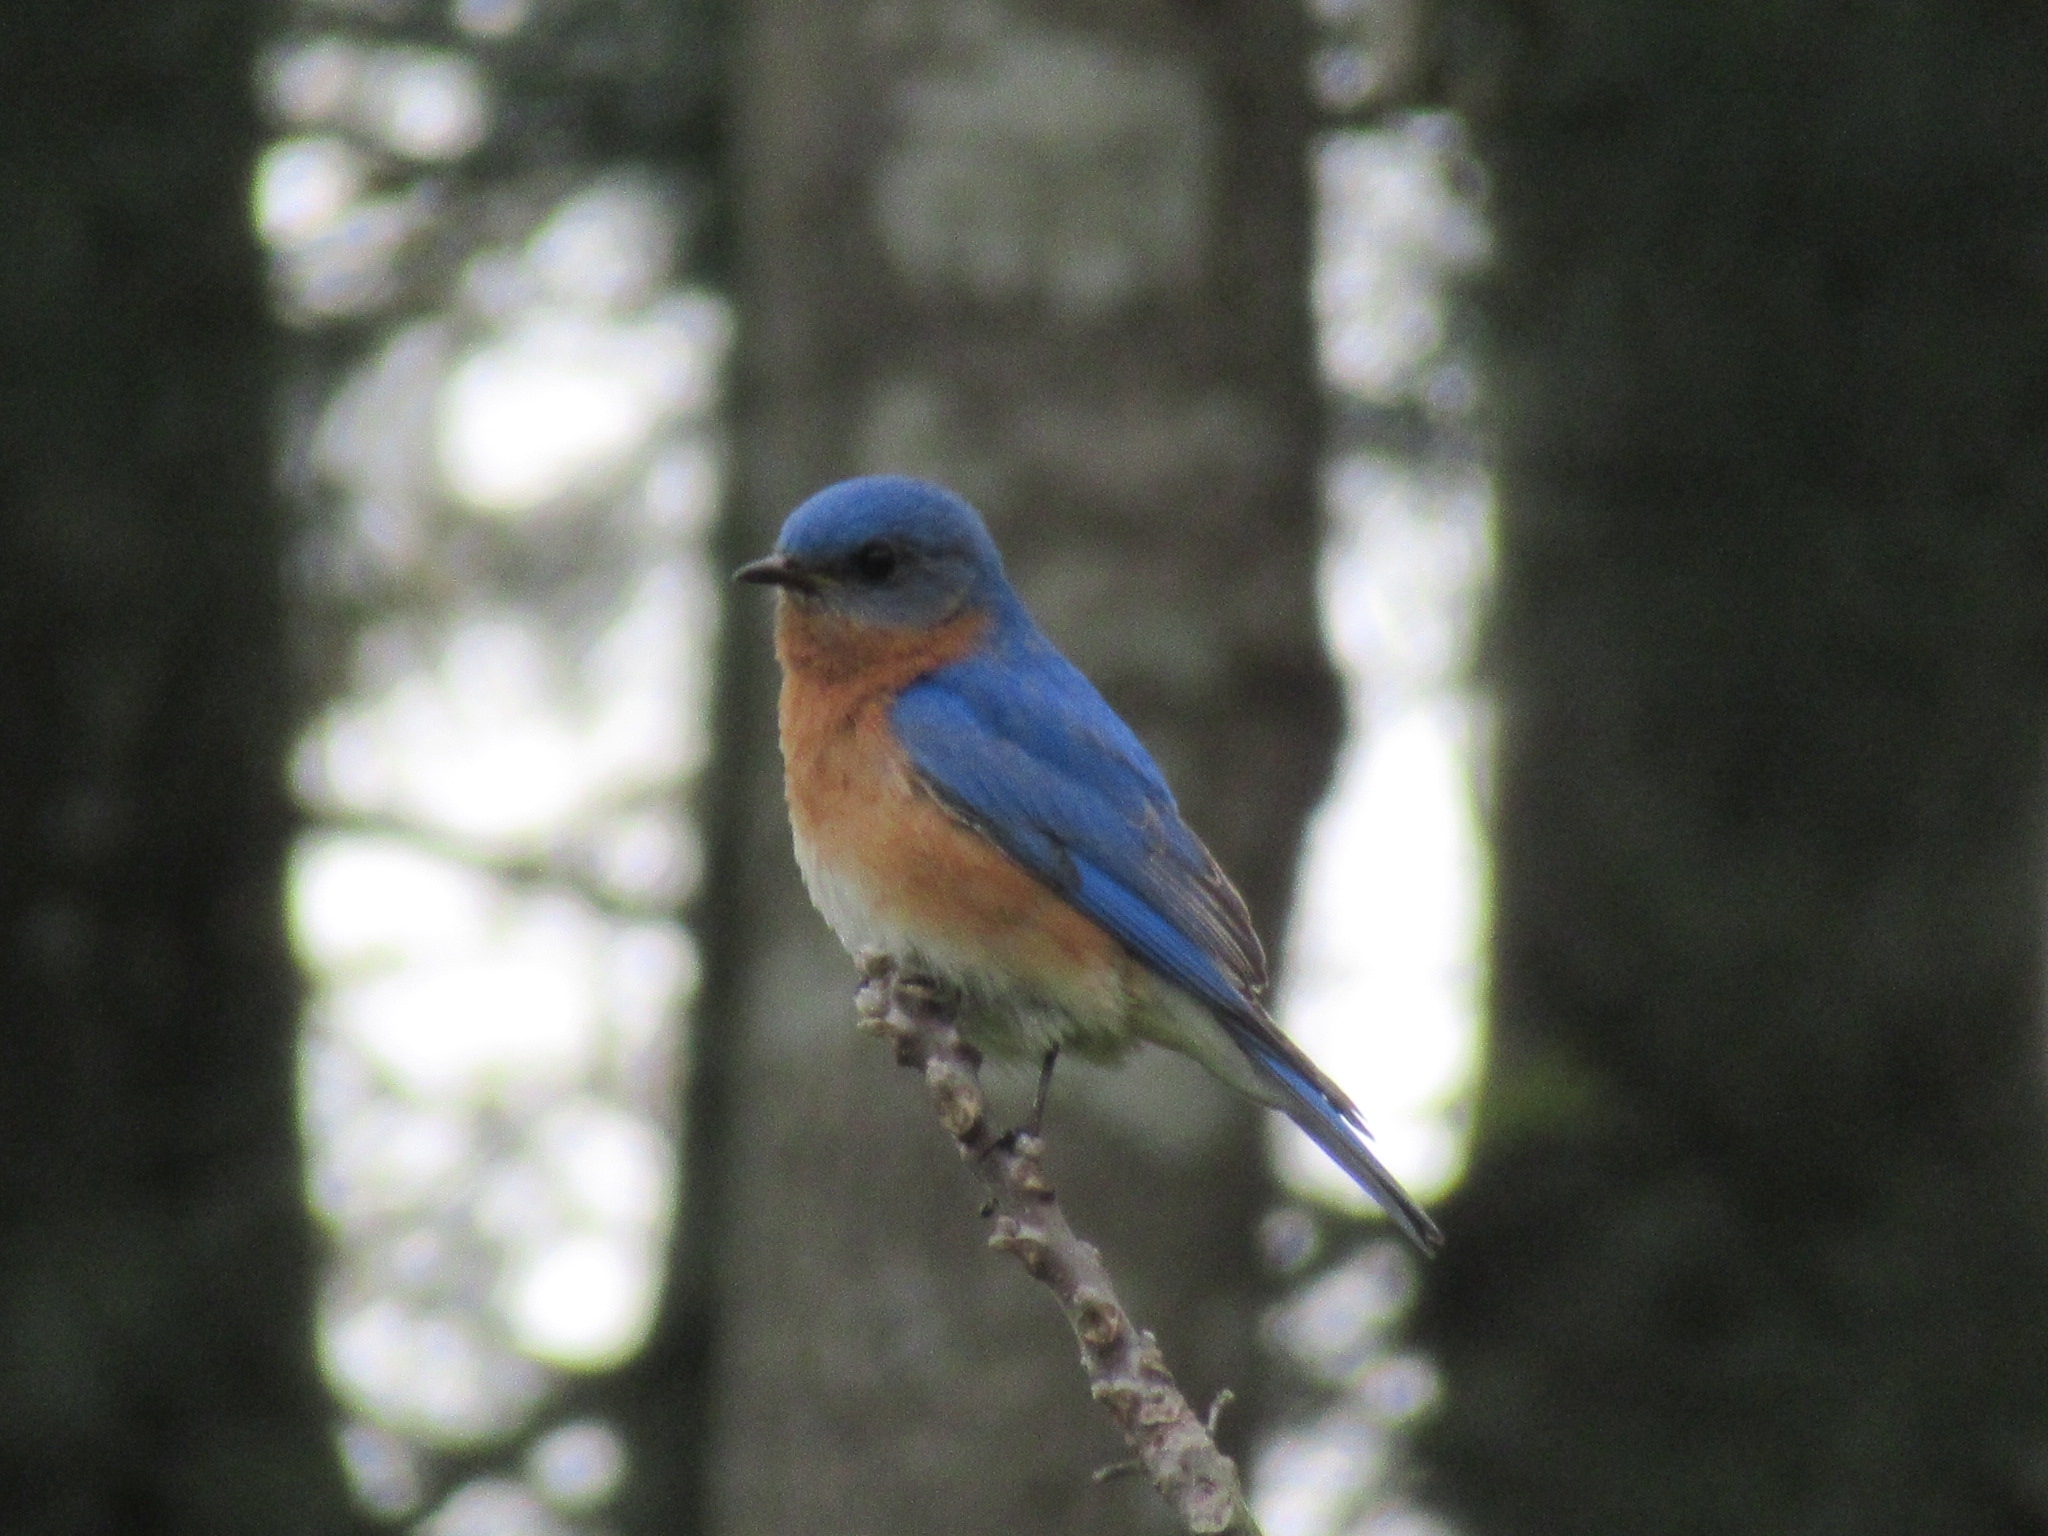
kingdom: Animalia
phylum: Chordata
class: Aves
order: Passeriformes
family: Turdidae
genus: Sialia
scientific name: Sialia sialis
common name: Eastern bluebird
